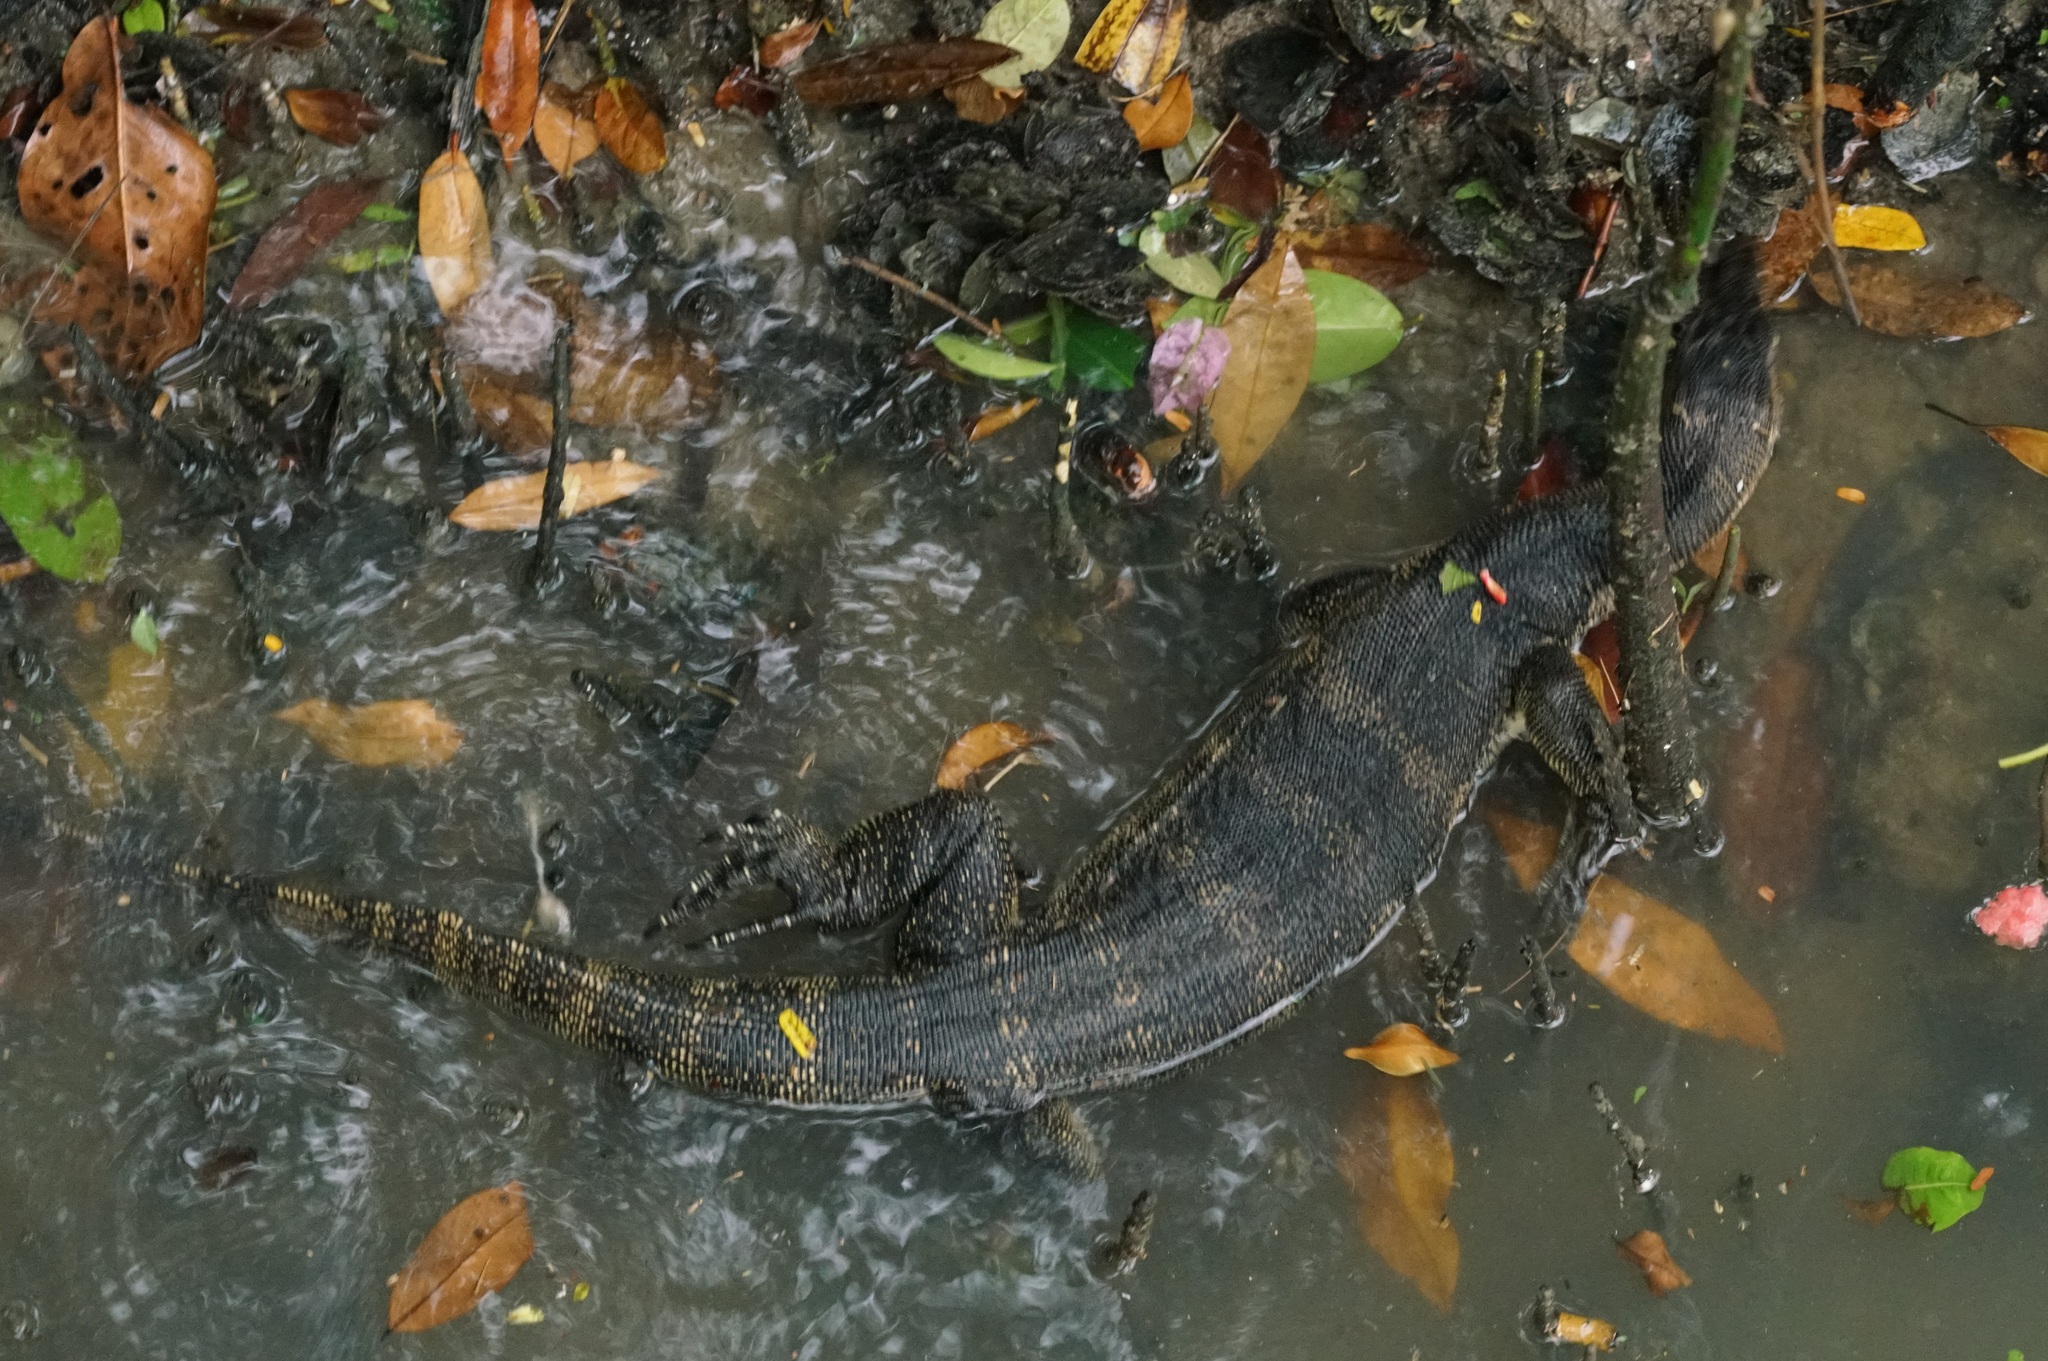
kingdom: Animalia
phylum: Chordata
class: Squamata
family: Varanidae
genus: Varanus
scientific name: Varanus salvator
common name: Common water monitor
